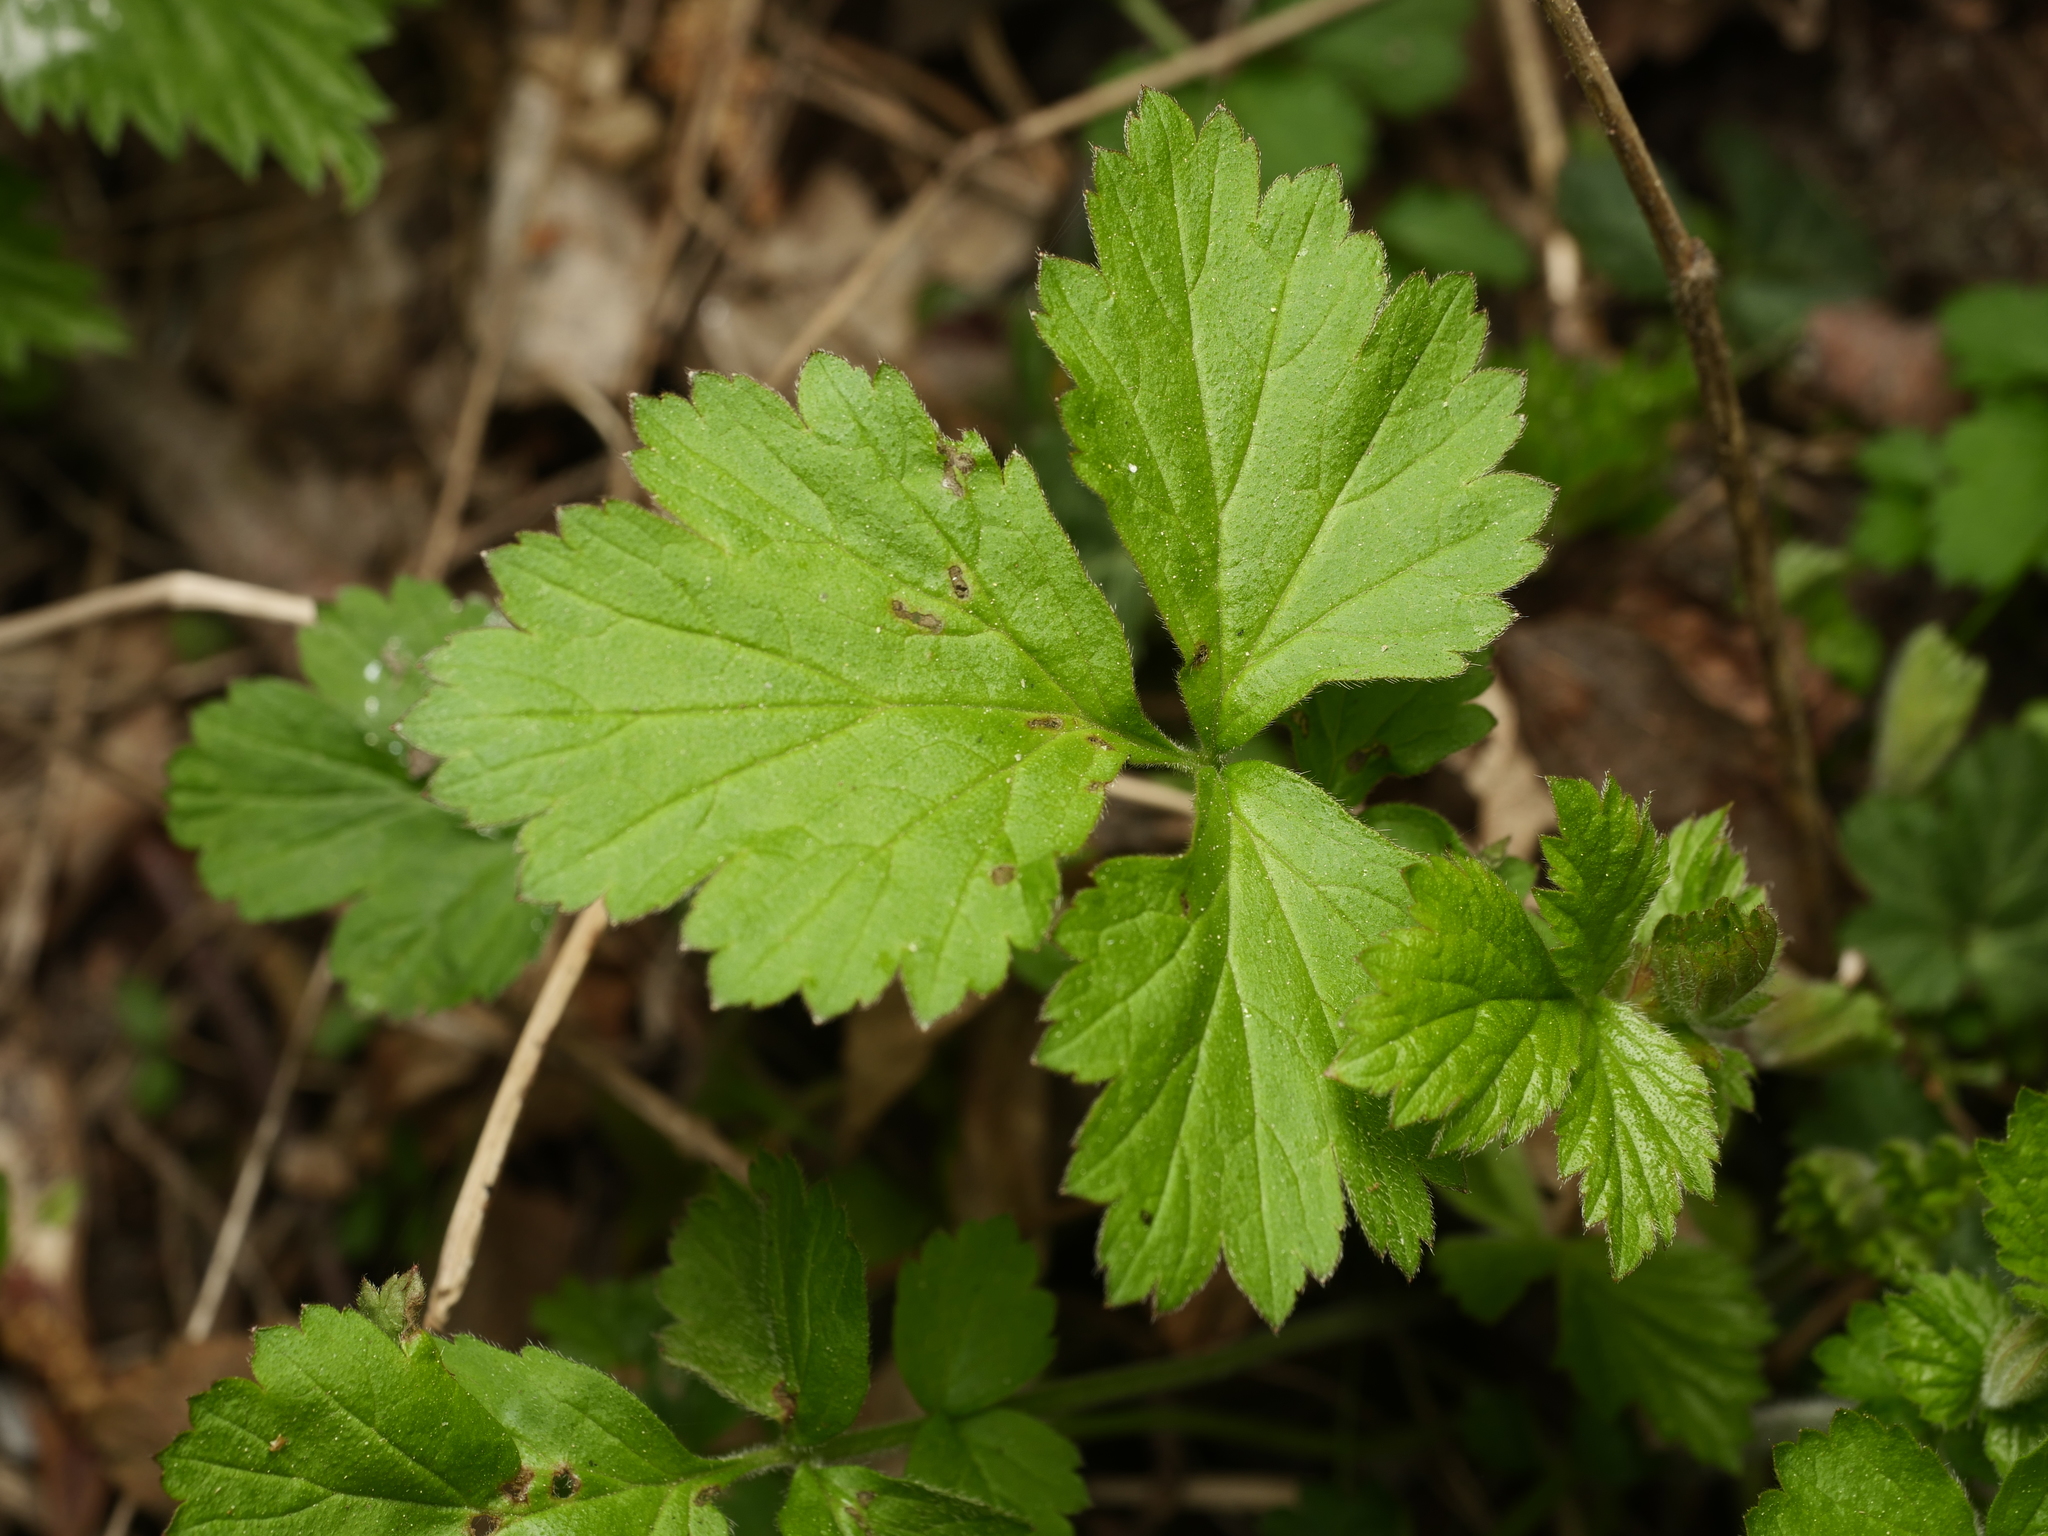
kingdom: Plantae
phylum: Tracheophyta
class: Magnoliopsida
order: Rosales
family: Rosaceae
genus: Geum
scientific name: Geum urbanum
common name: Wood avens
